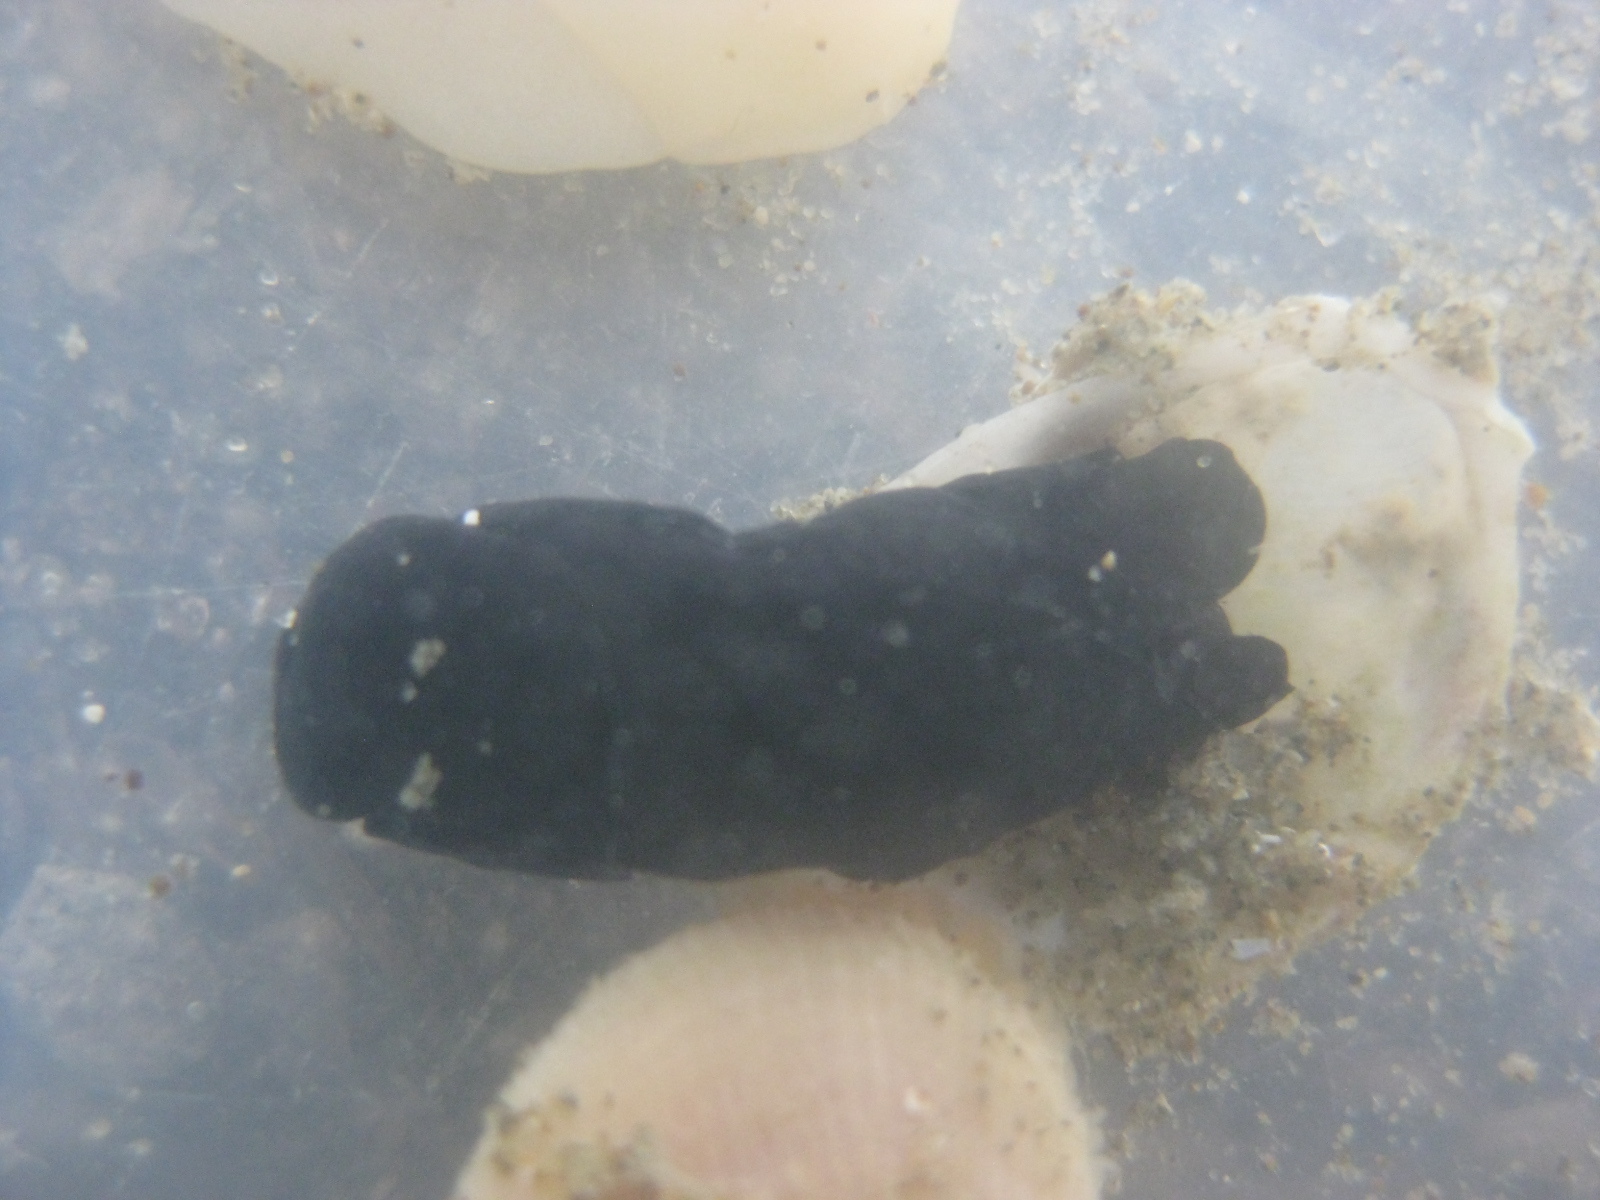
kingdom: Animalia
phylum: Mollusca
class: Gastropoda
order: Cephalaspidea
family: Aglajidae
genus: Melanochlamys
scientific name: Melanochlamys cylindrica
